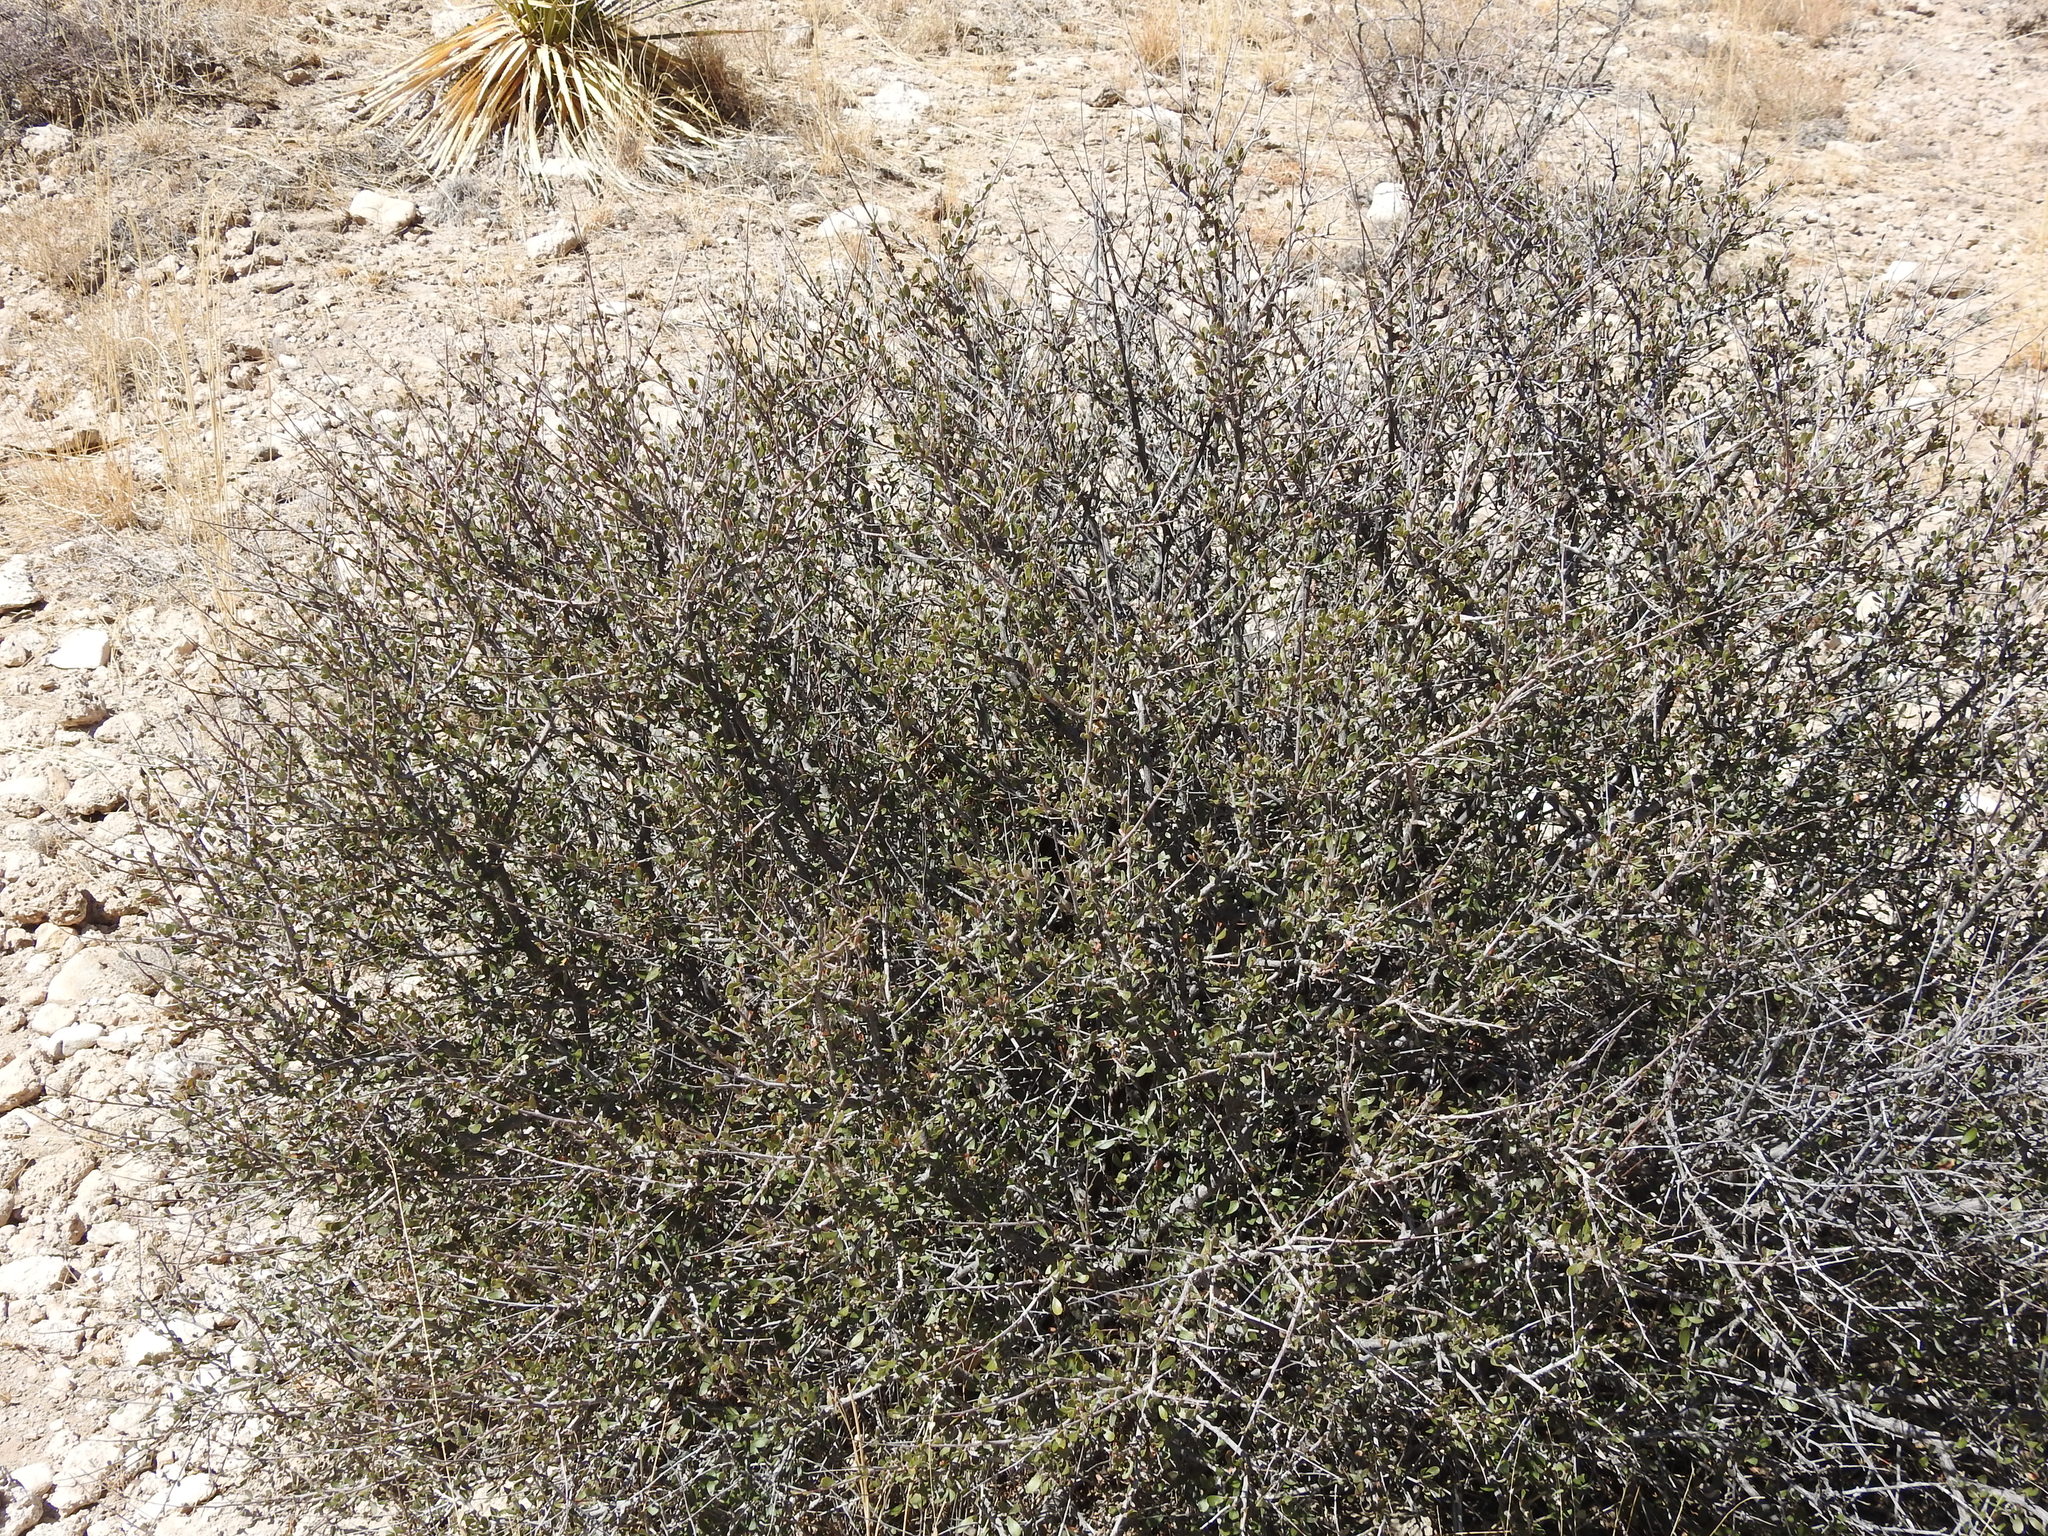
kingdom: Plantae
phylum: Tracheophyta
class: Magnoliopsida
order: Rosales
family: Rosaceae
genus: Cercocarpus
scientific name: Cercocarpus breviflorus
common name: Wright's mountain-mahogany
